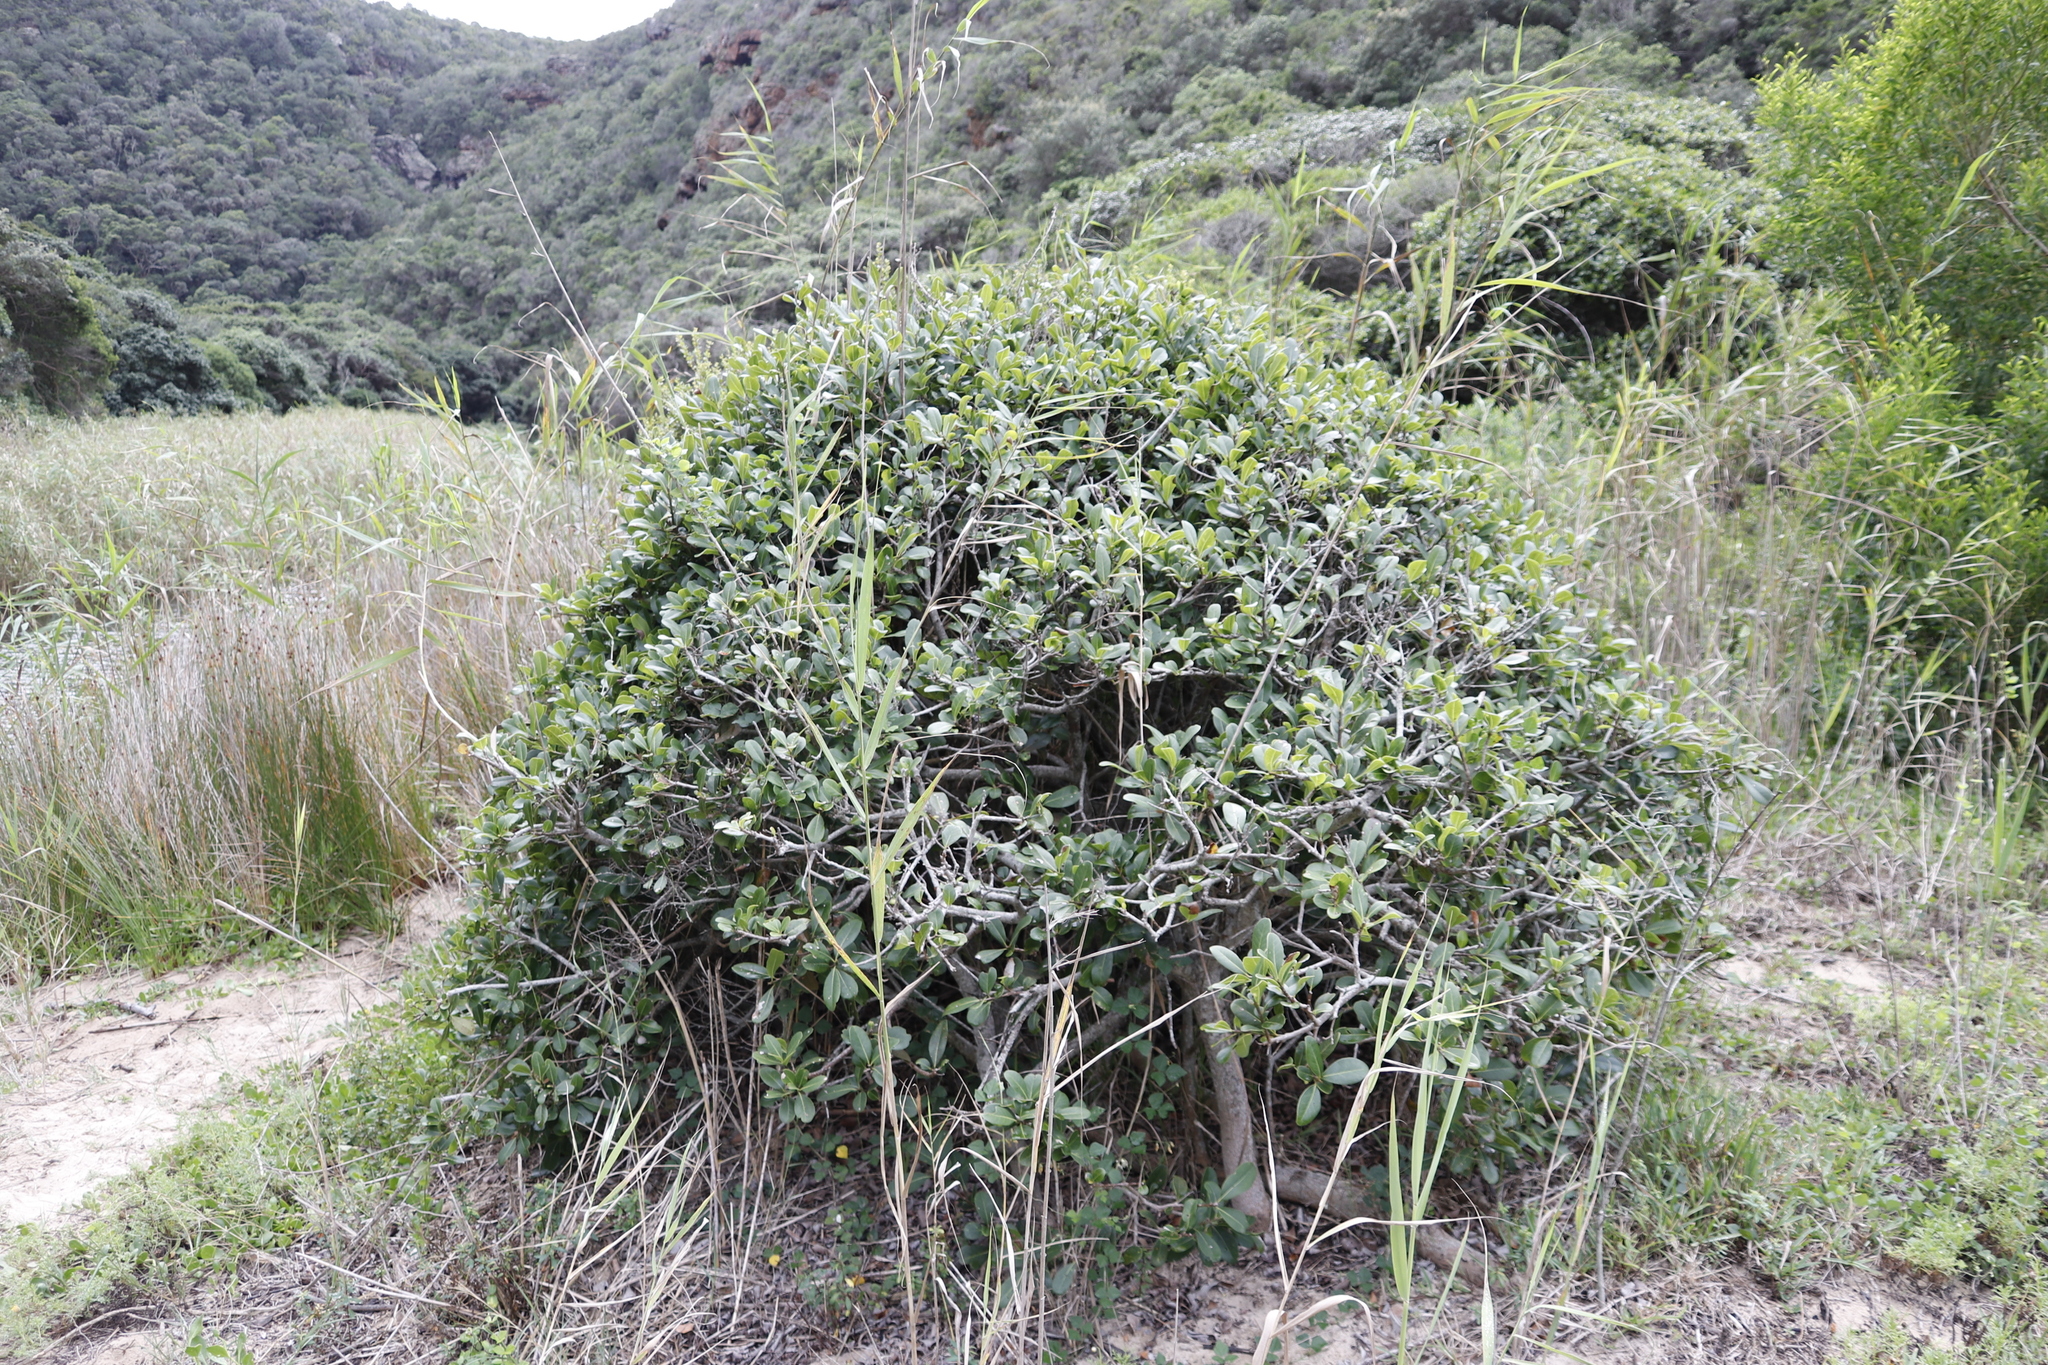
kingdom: Plantae
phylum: Tracheophyta
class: Magnoliopsida
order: Ericales
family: Sapotaceae
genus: Sideroxylon
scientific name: Sideroxylon inerme
